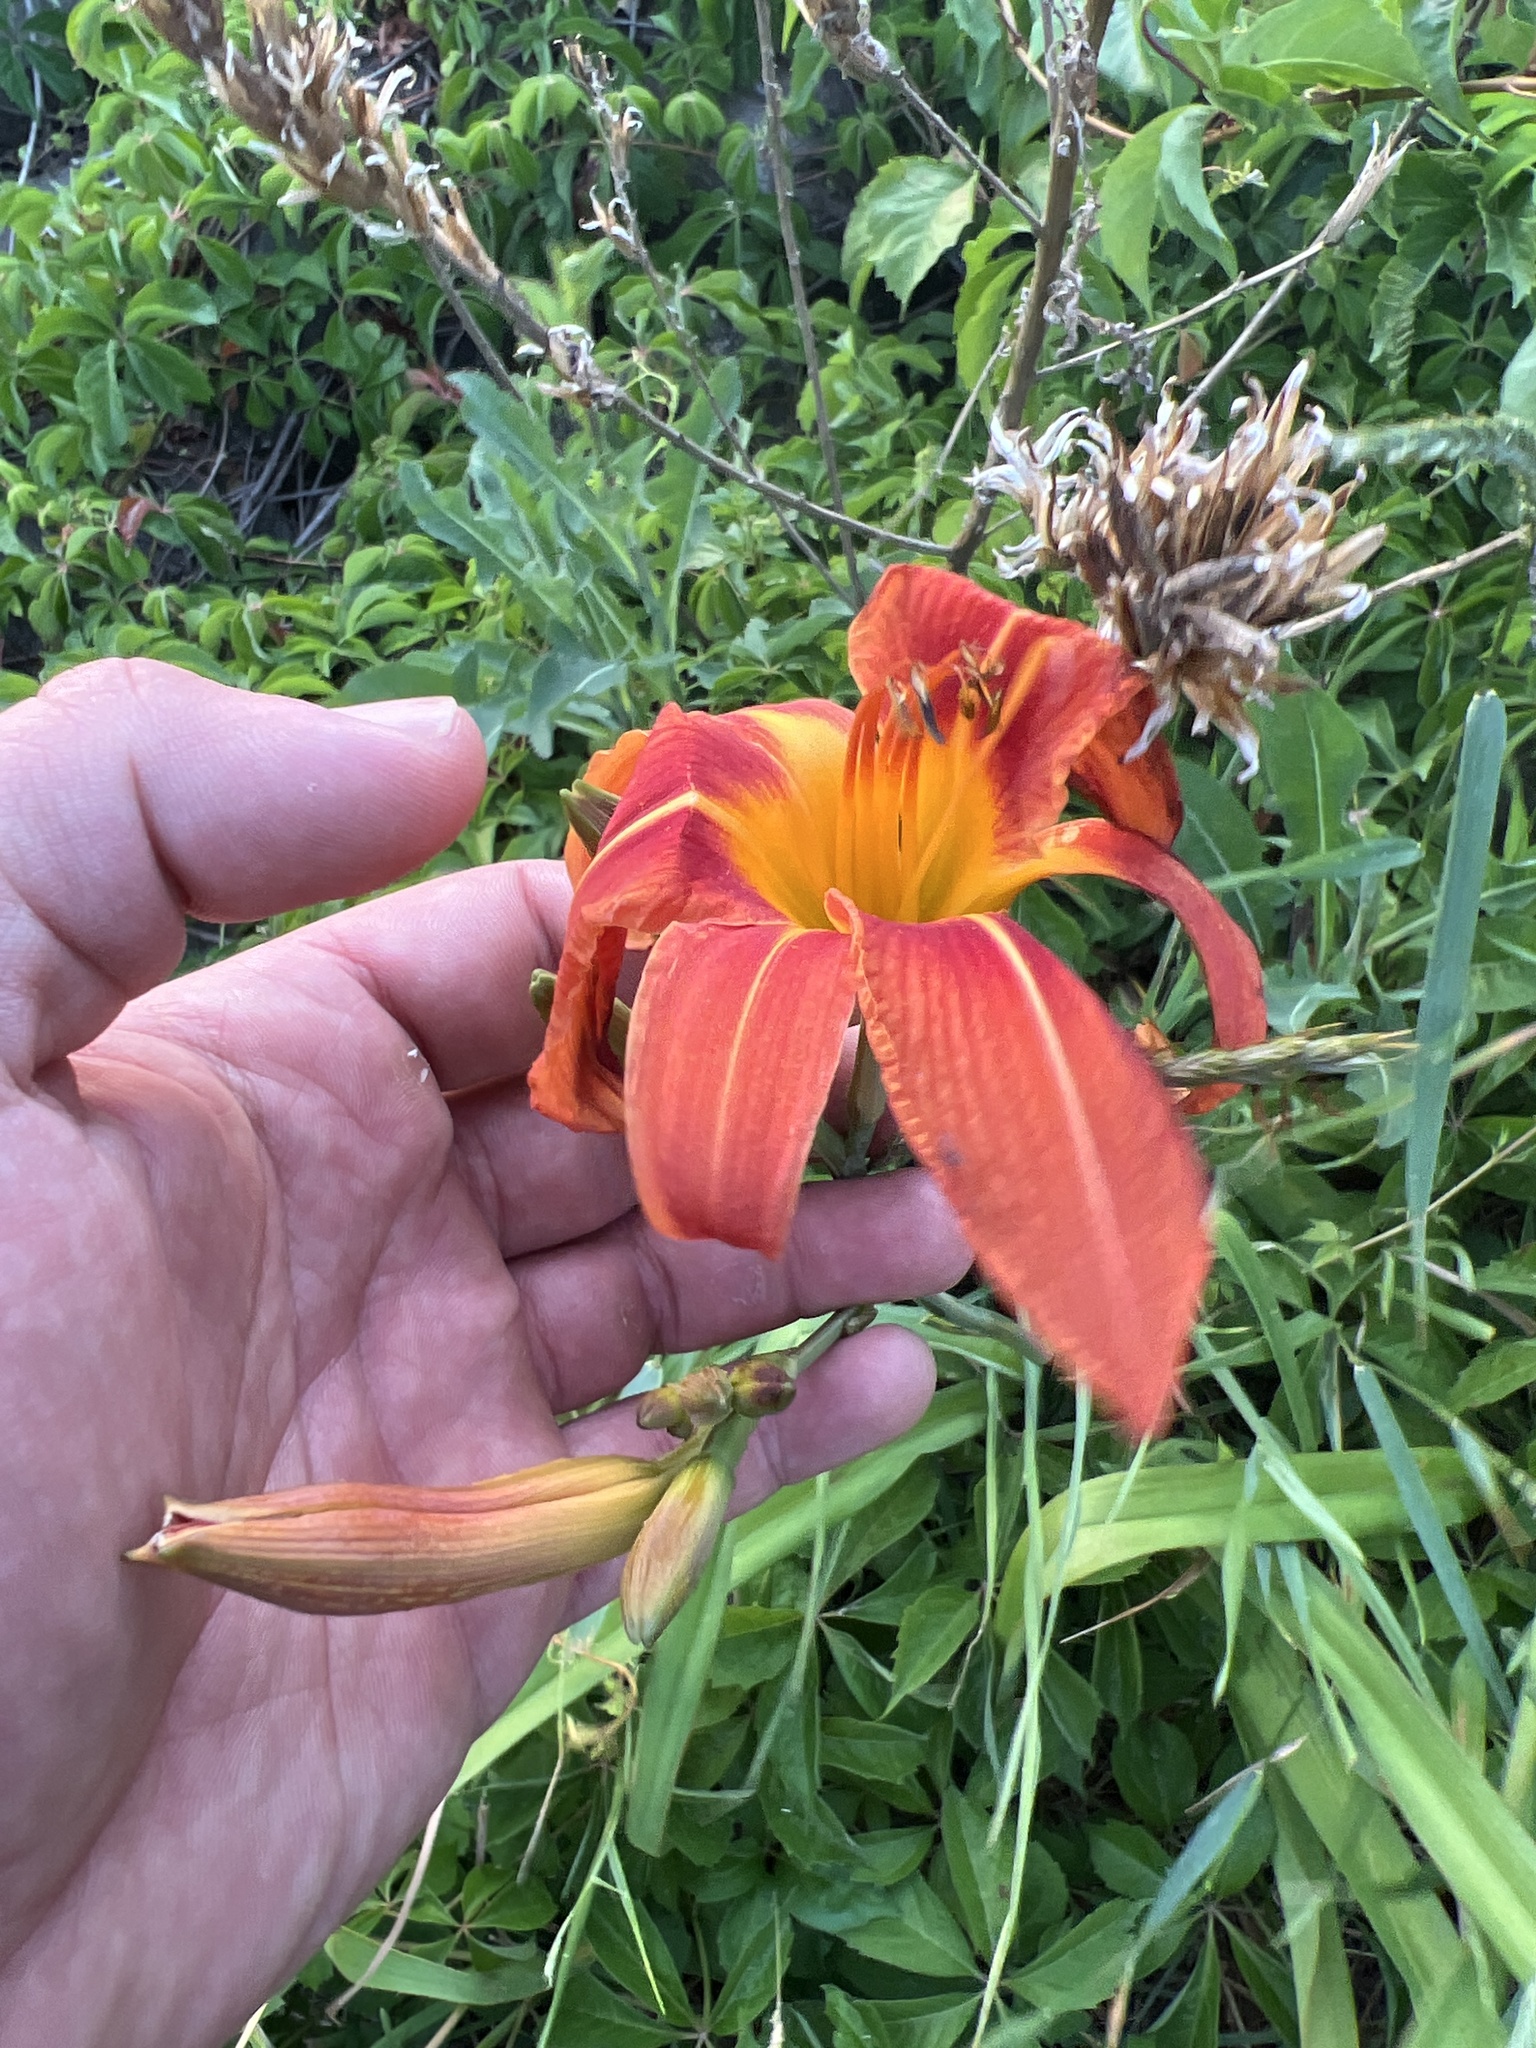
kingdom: Plantae
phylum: Tracheophyta
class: Liliopsida
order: Asparagales
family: Asphodelaceae
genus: Hemerocallis
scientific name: Hemerocallis fulva
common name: Orange day-lily
